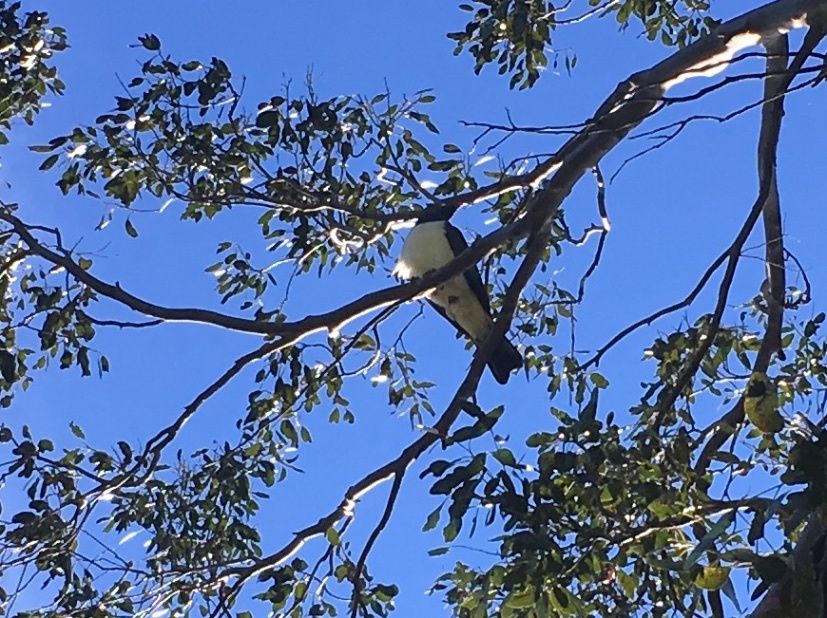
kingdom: Animalia
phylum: Chordata
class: Aves
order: Columbiformes
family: Columbidae
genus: Hemiphaga
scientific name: Hemiphaga novaeseelandiae
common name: New zealand pigeon
